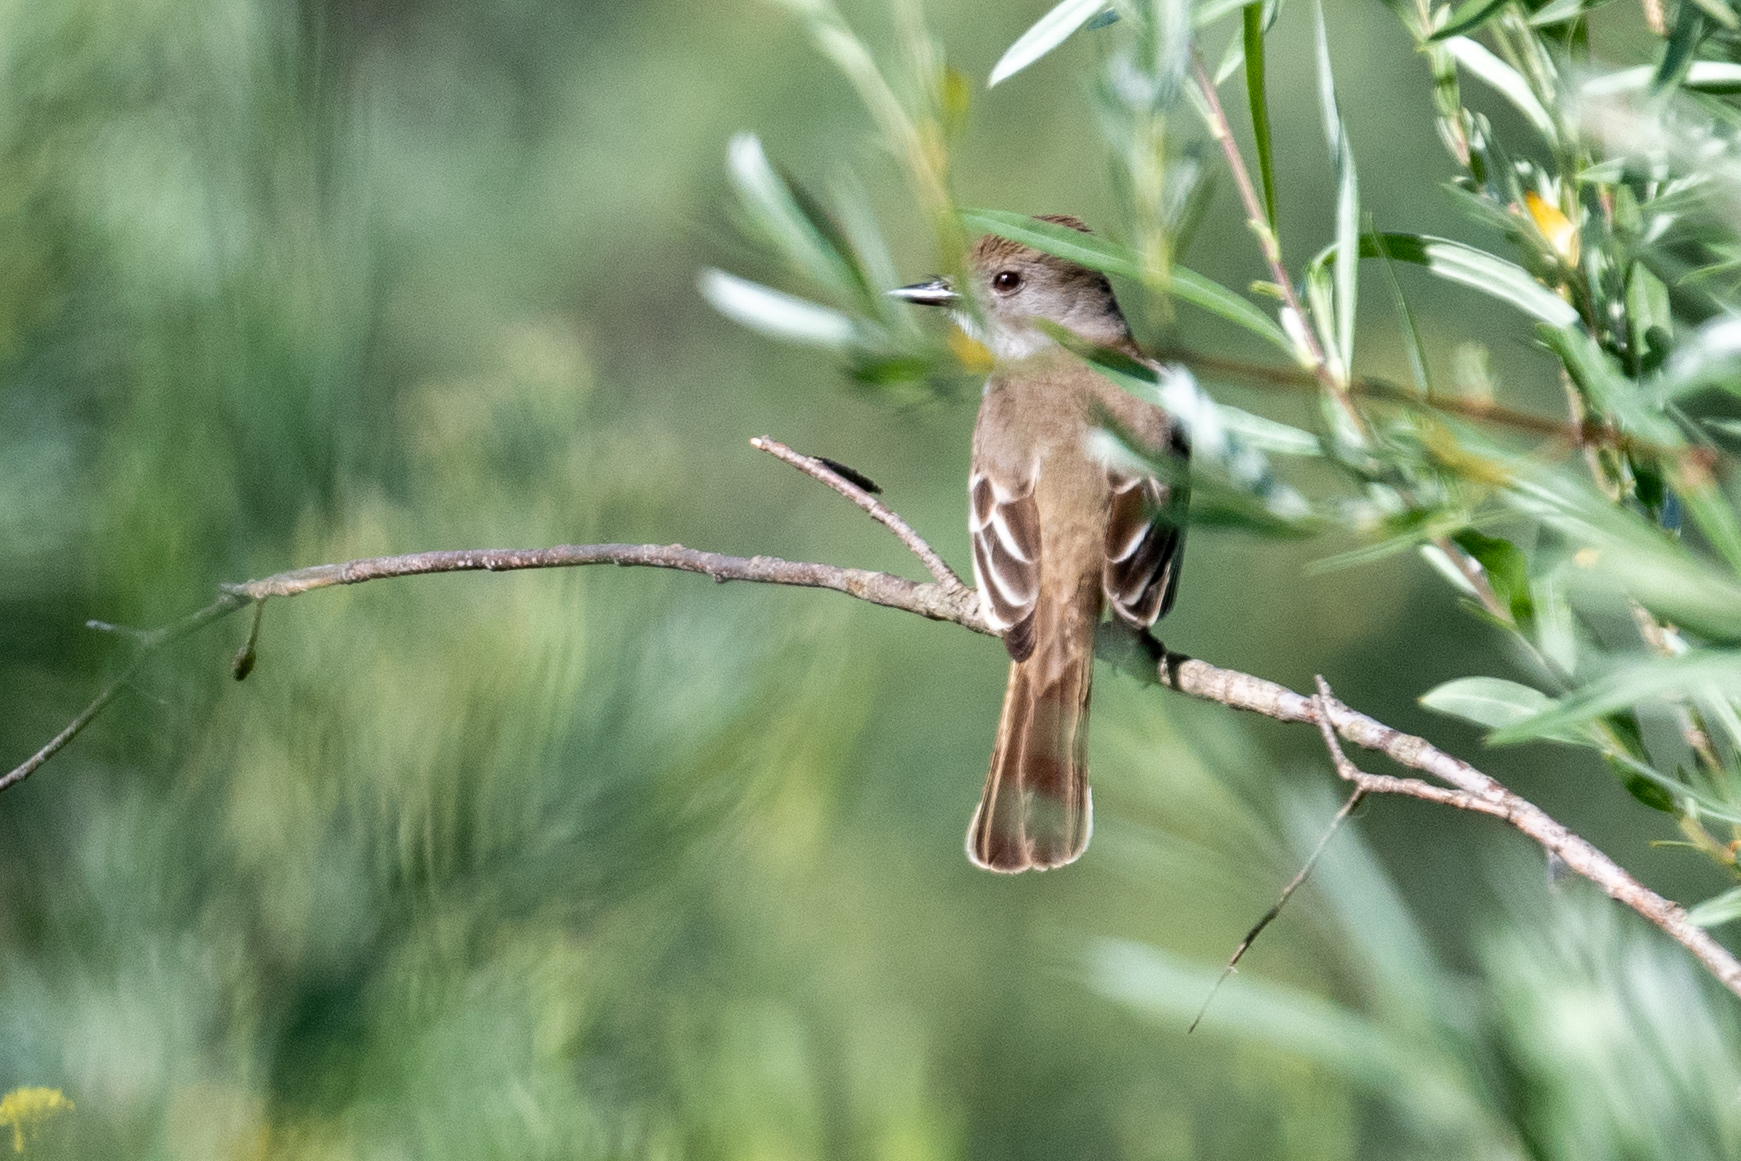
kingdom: Animalia
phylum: Chordata
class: Aves
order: Passeriformes
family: Tyrannidae
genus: Myiarchus
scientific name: Myiarchus cinerascens
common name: Ash-throated flycatcher
